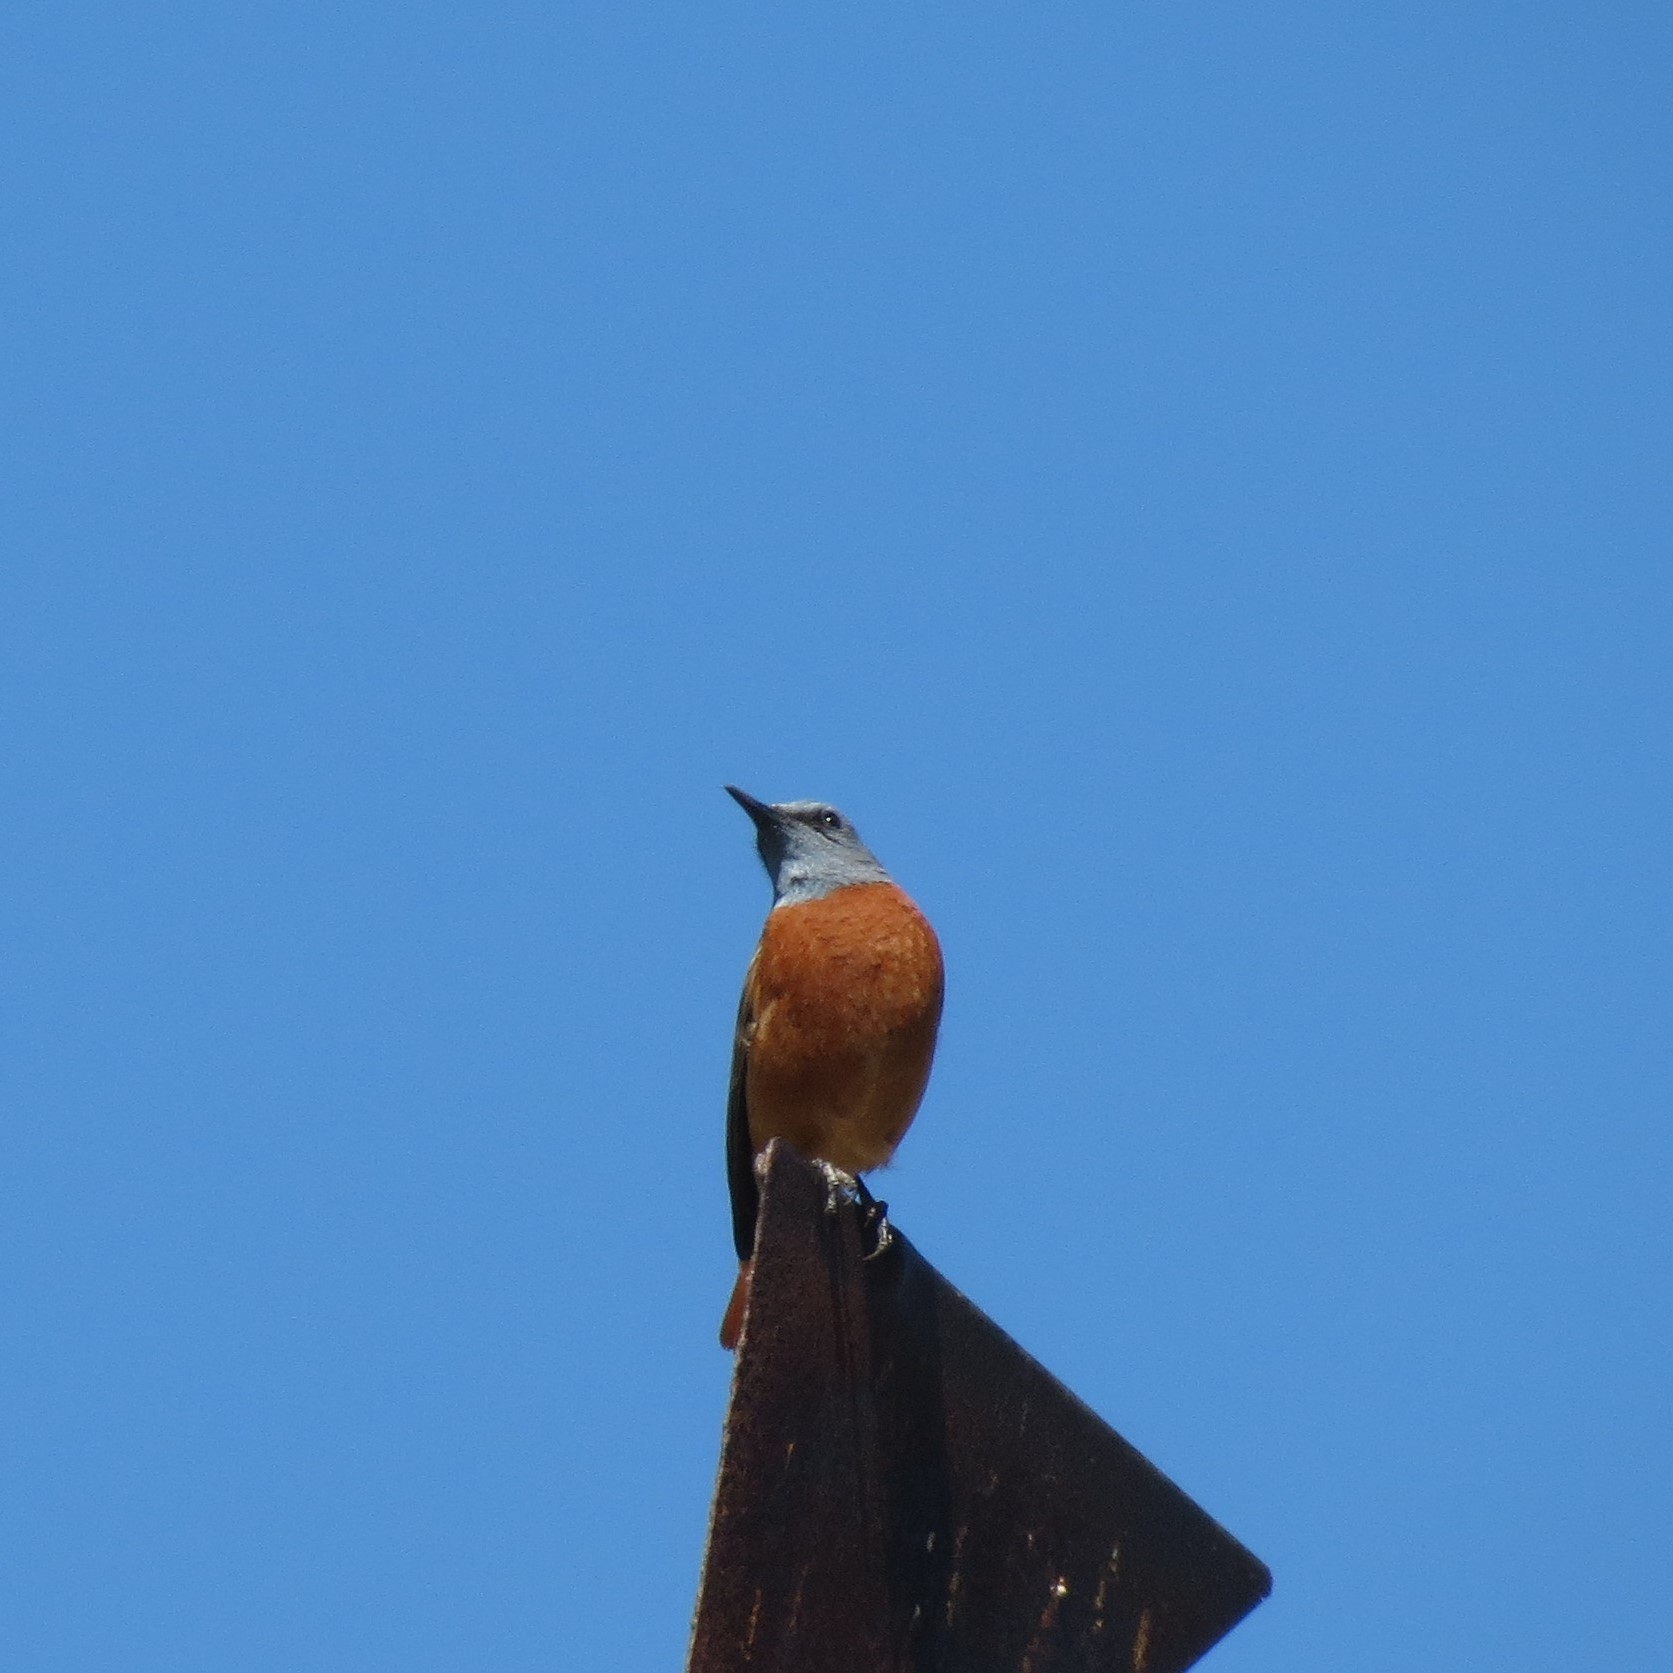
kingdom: Animalia
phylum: Chordata
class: Aves
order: Passeriformes
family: Muscicapidae
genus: Monticola
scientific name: Monticola rupestris
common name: Cape rock thrush
